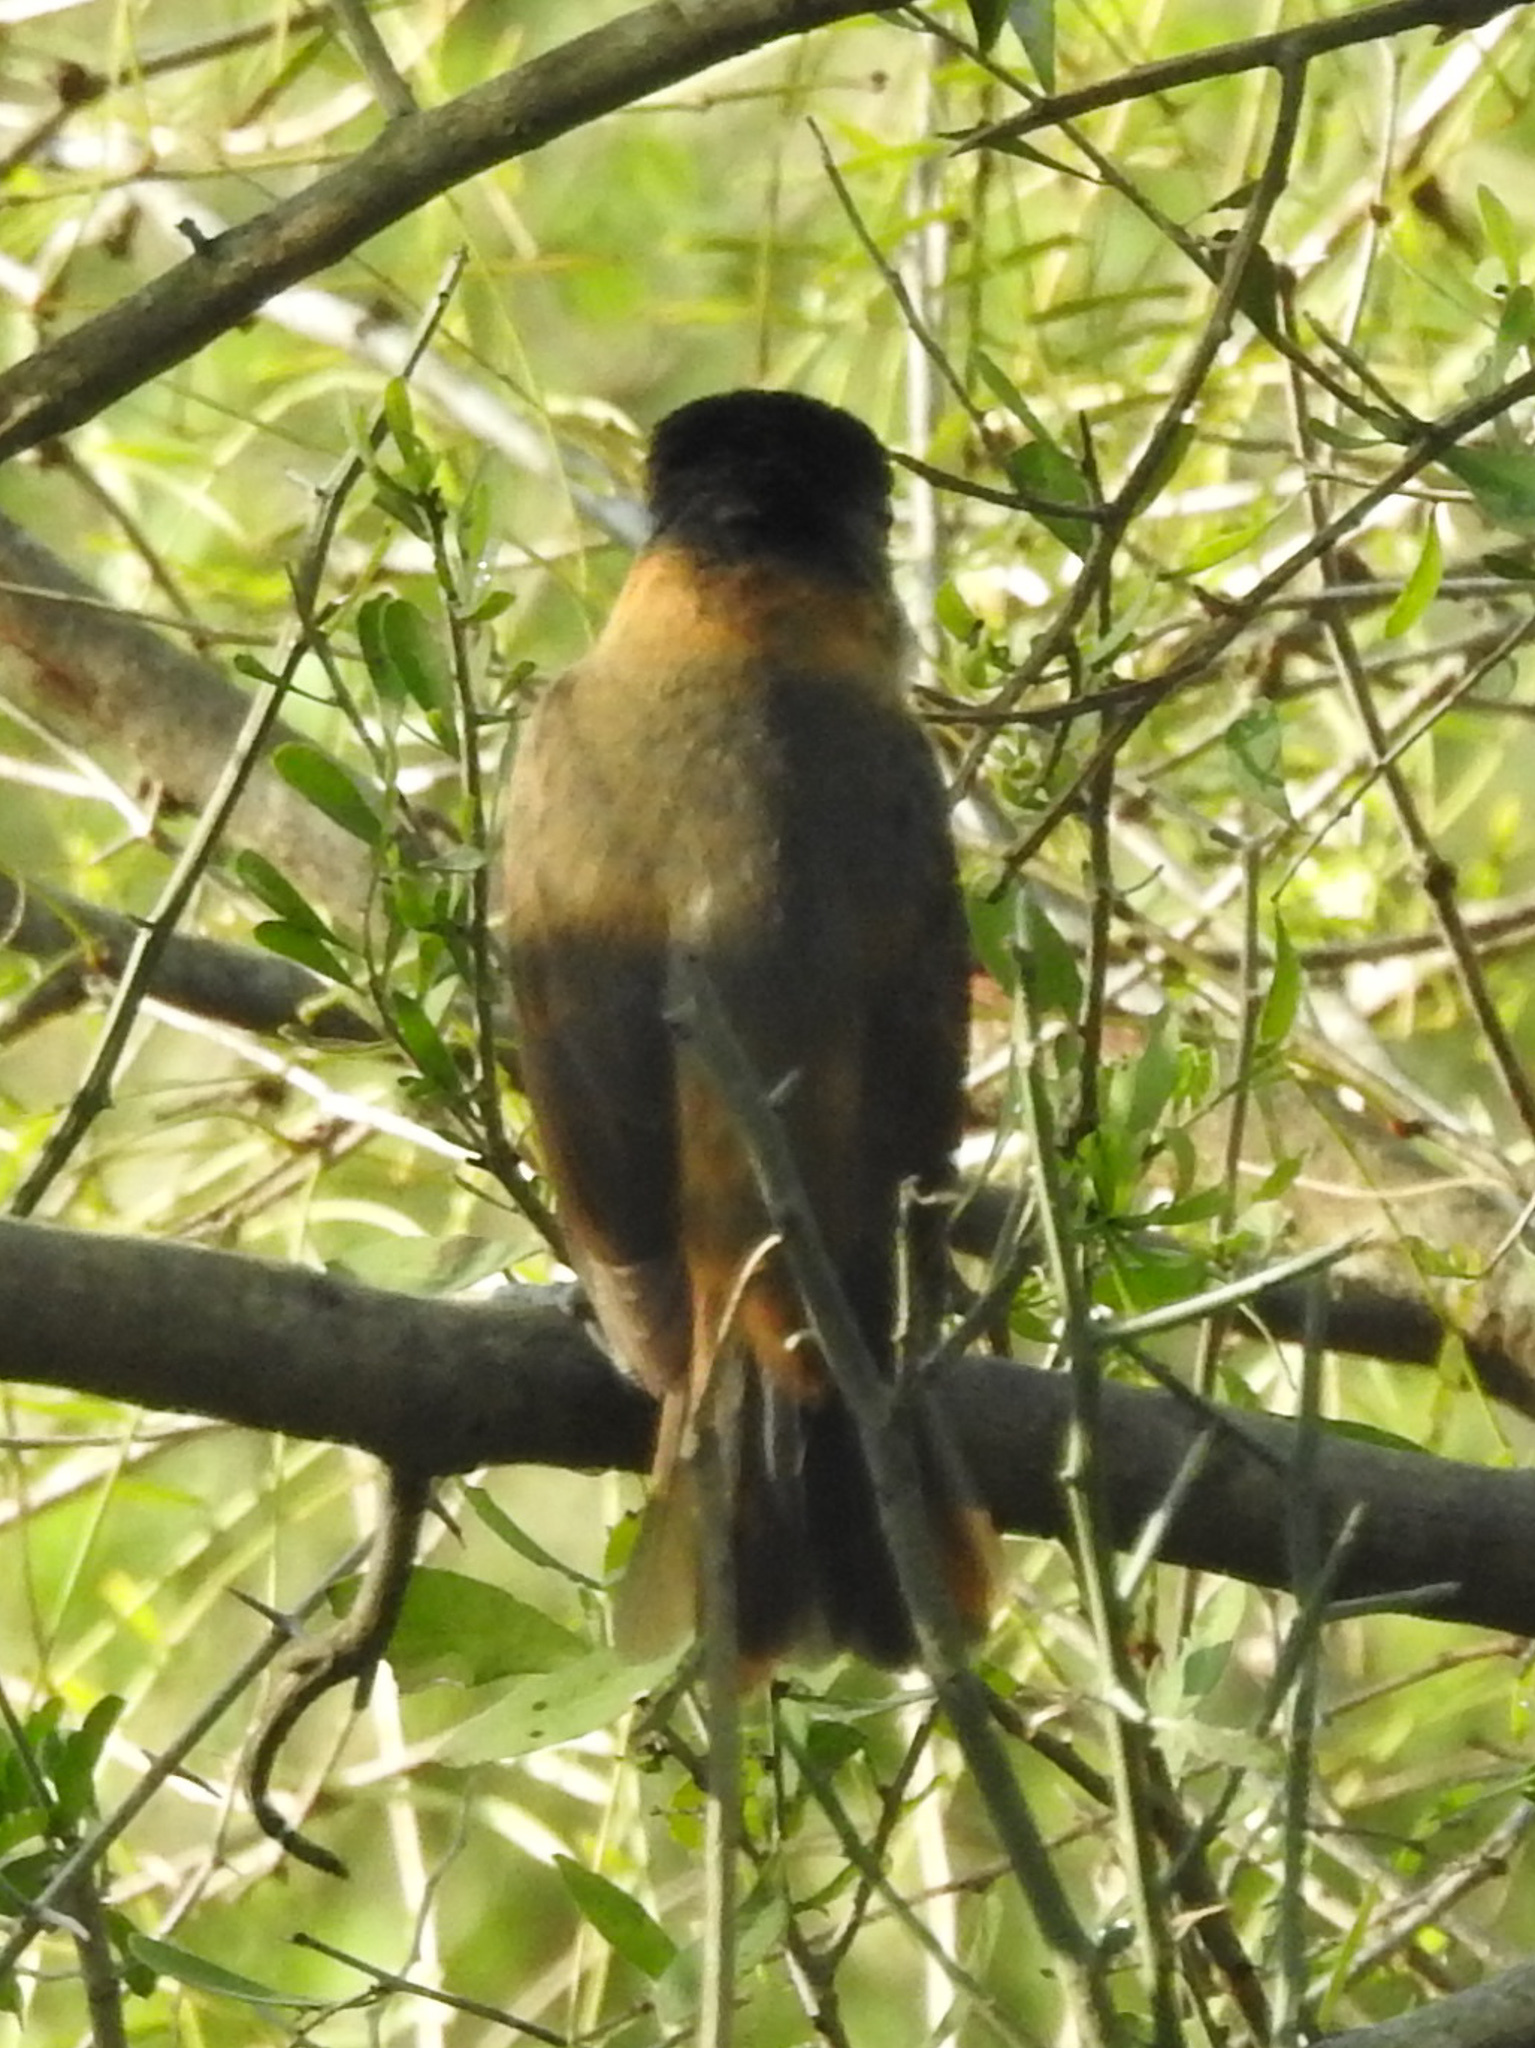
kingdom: Animalia
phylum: Chordata
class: Aves
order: Passeriformes
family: Cotingidae
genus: Pachyramphus
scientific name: Pachyramphus aglaiae
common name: Rose-throated becard
